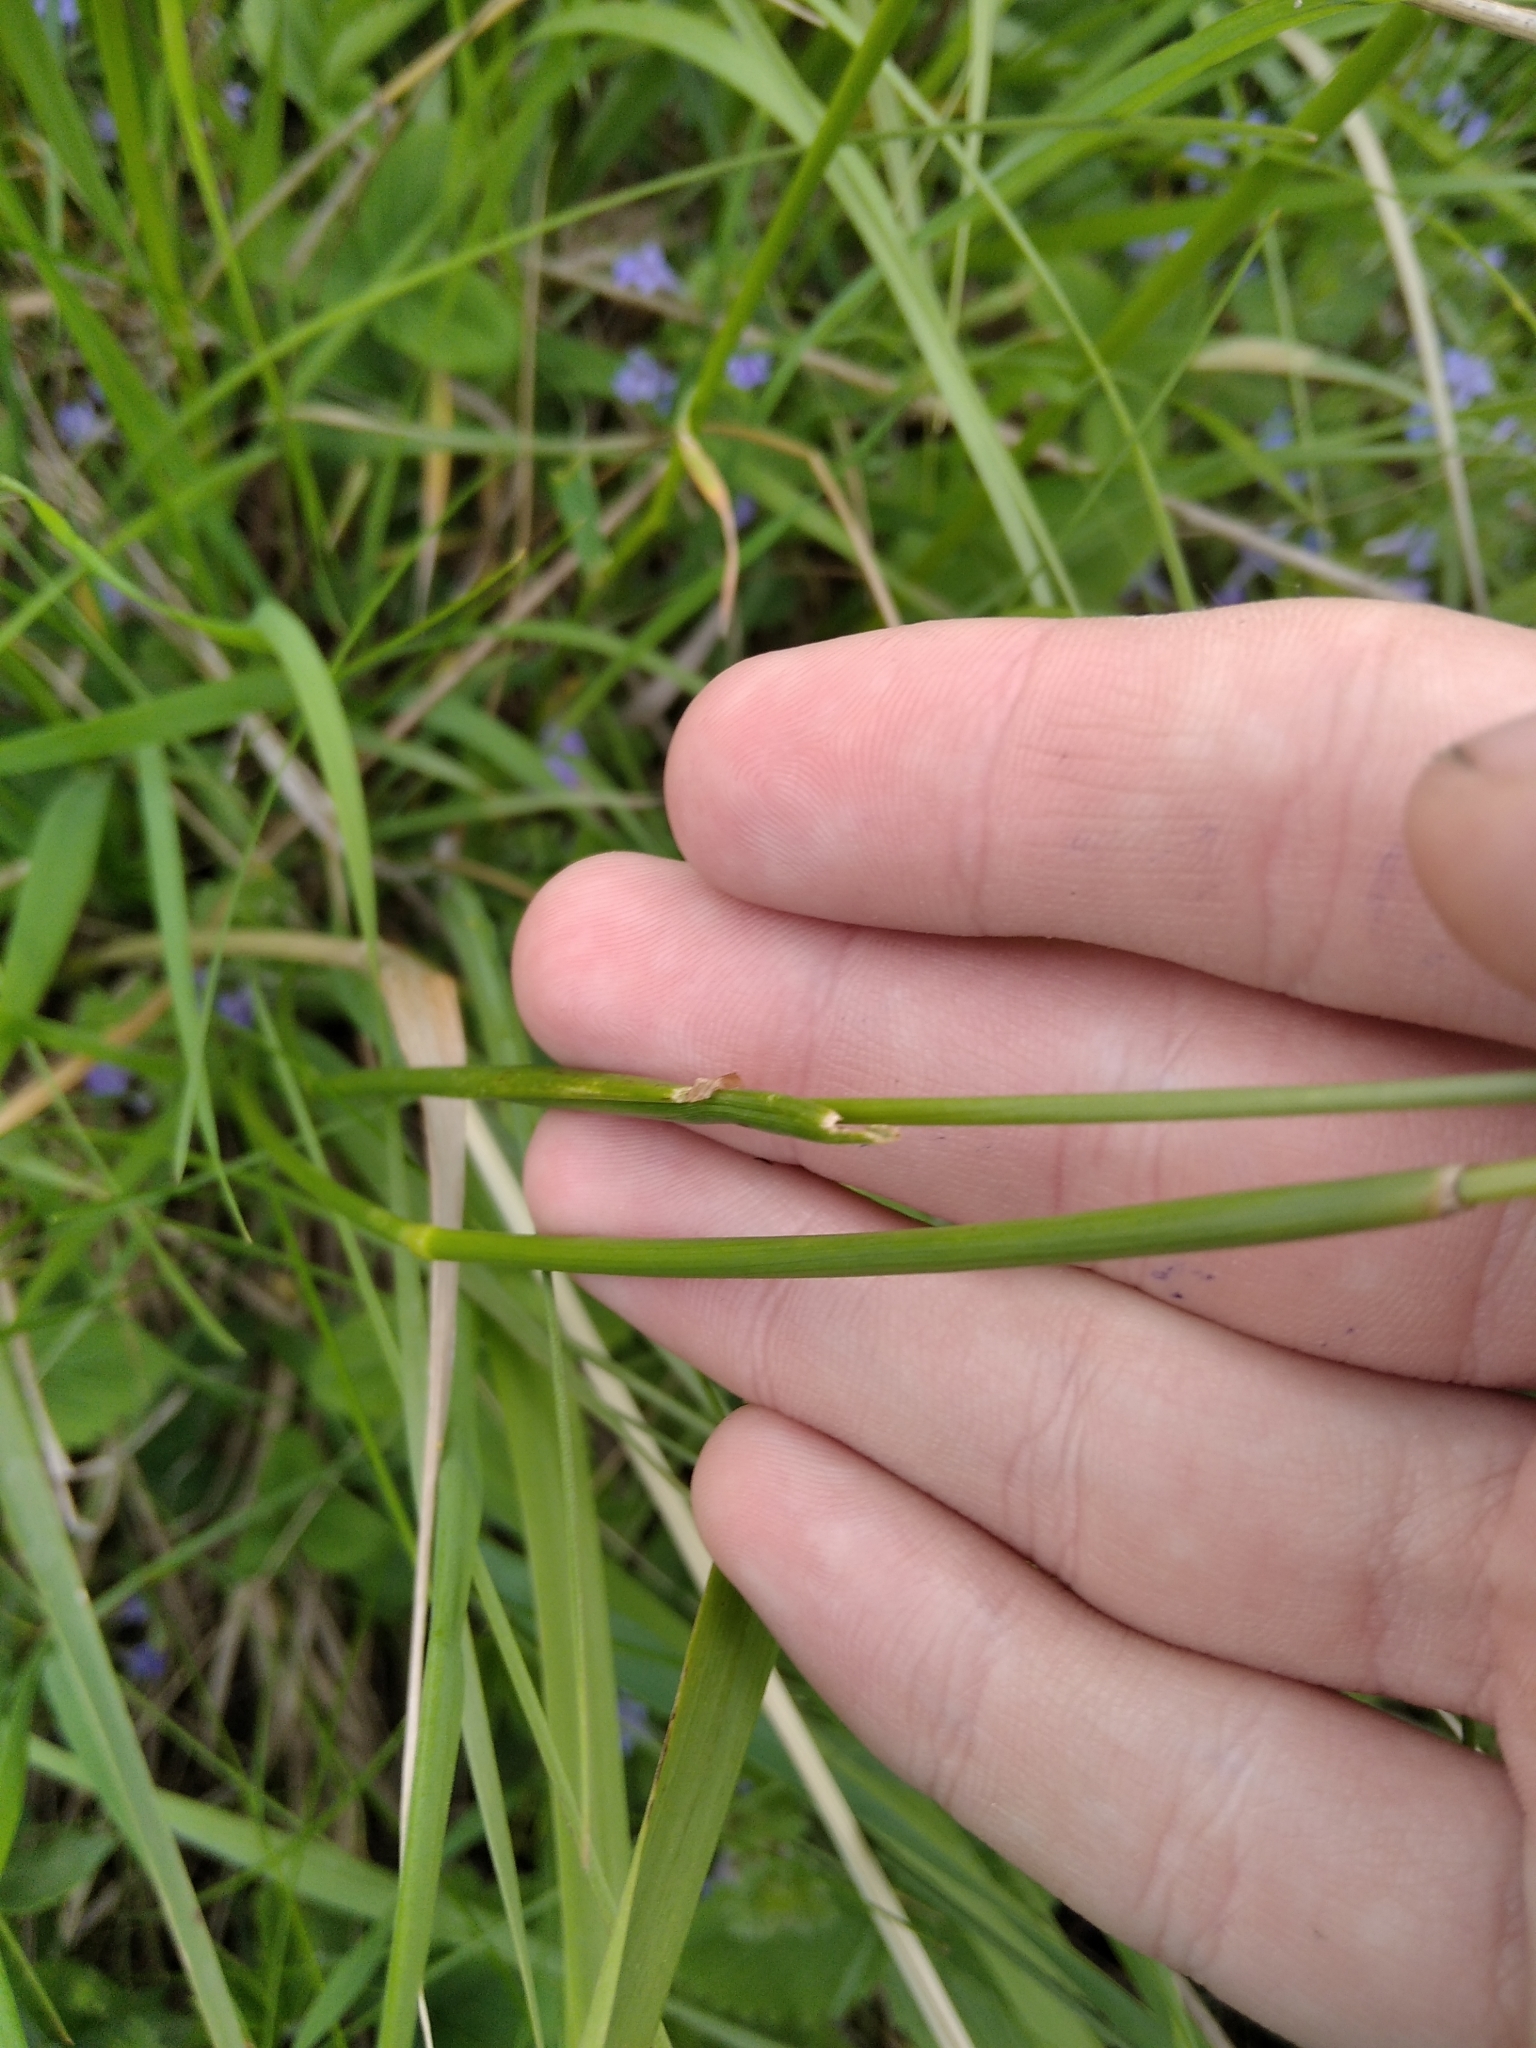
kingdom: Plantae
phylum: Tracheophyta
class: Liliopsida
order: Poales
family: Poaceae
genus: Alopecurus
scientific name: Alopecurus pratensis
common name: Meadow foxtail
